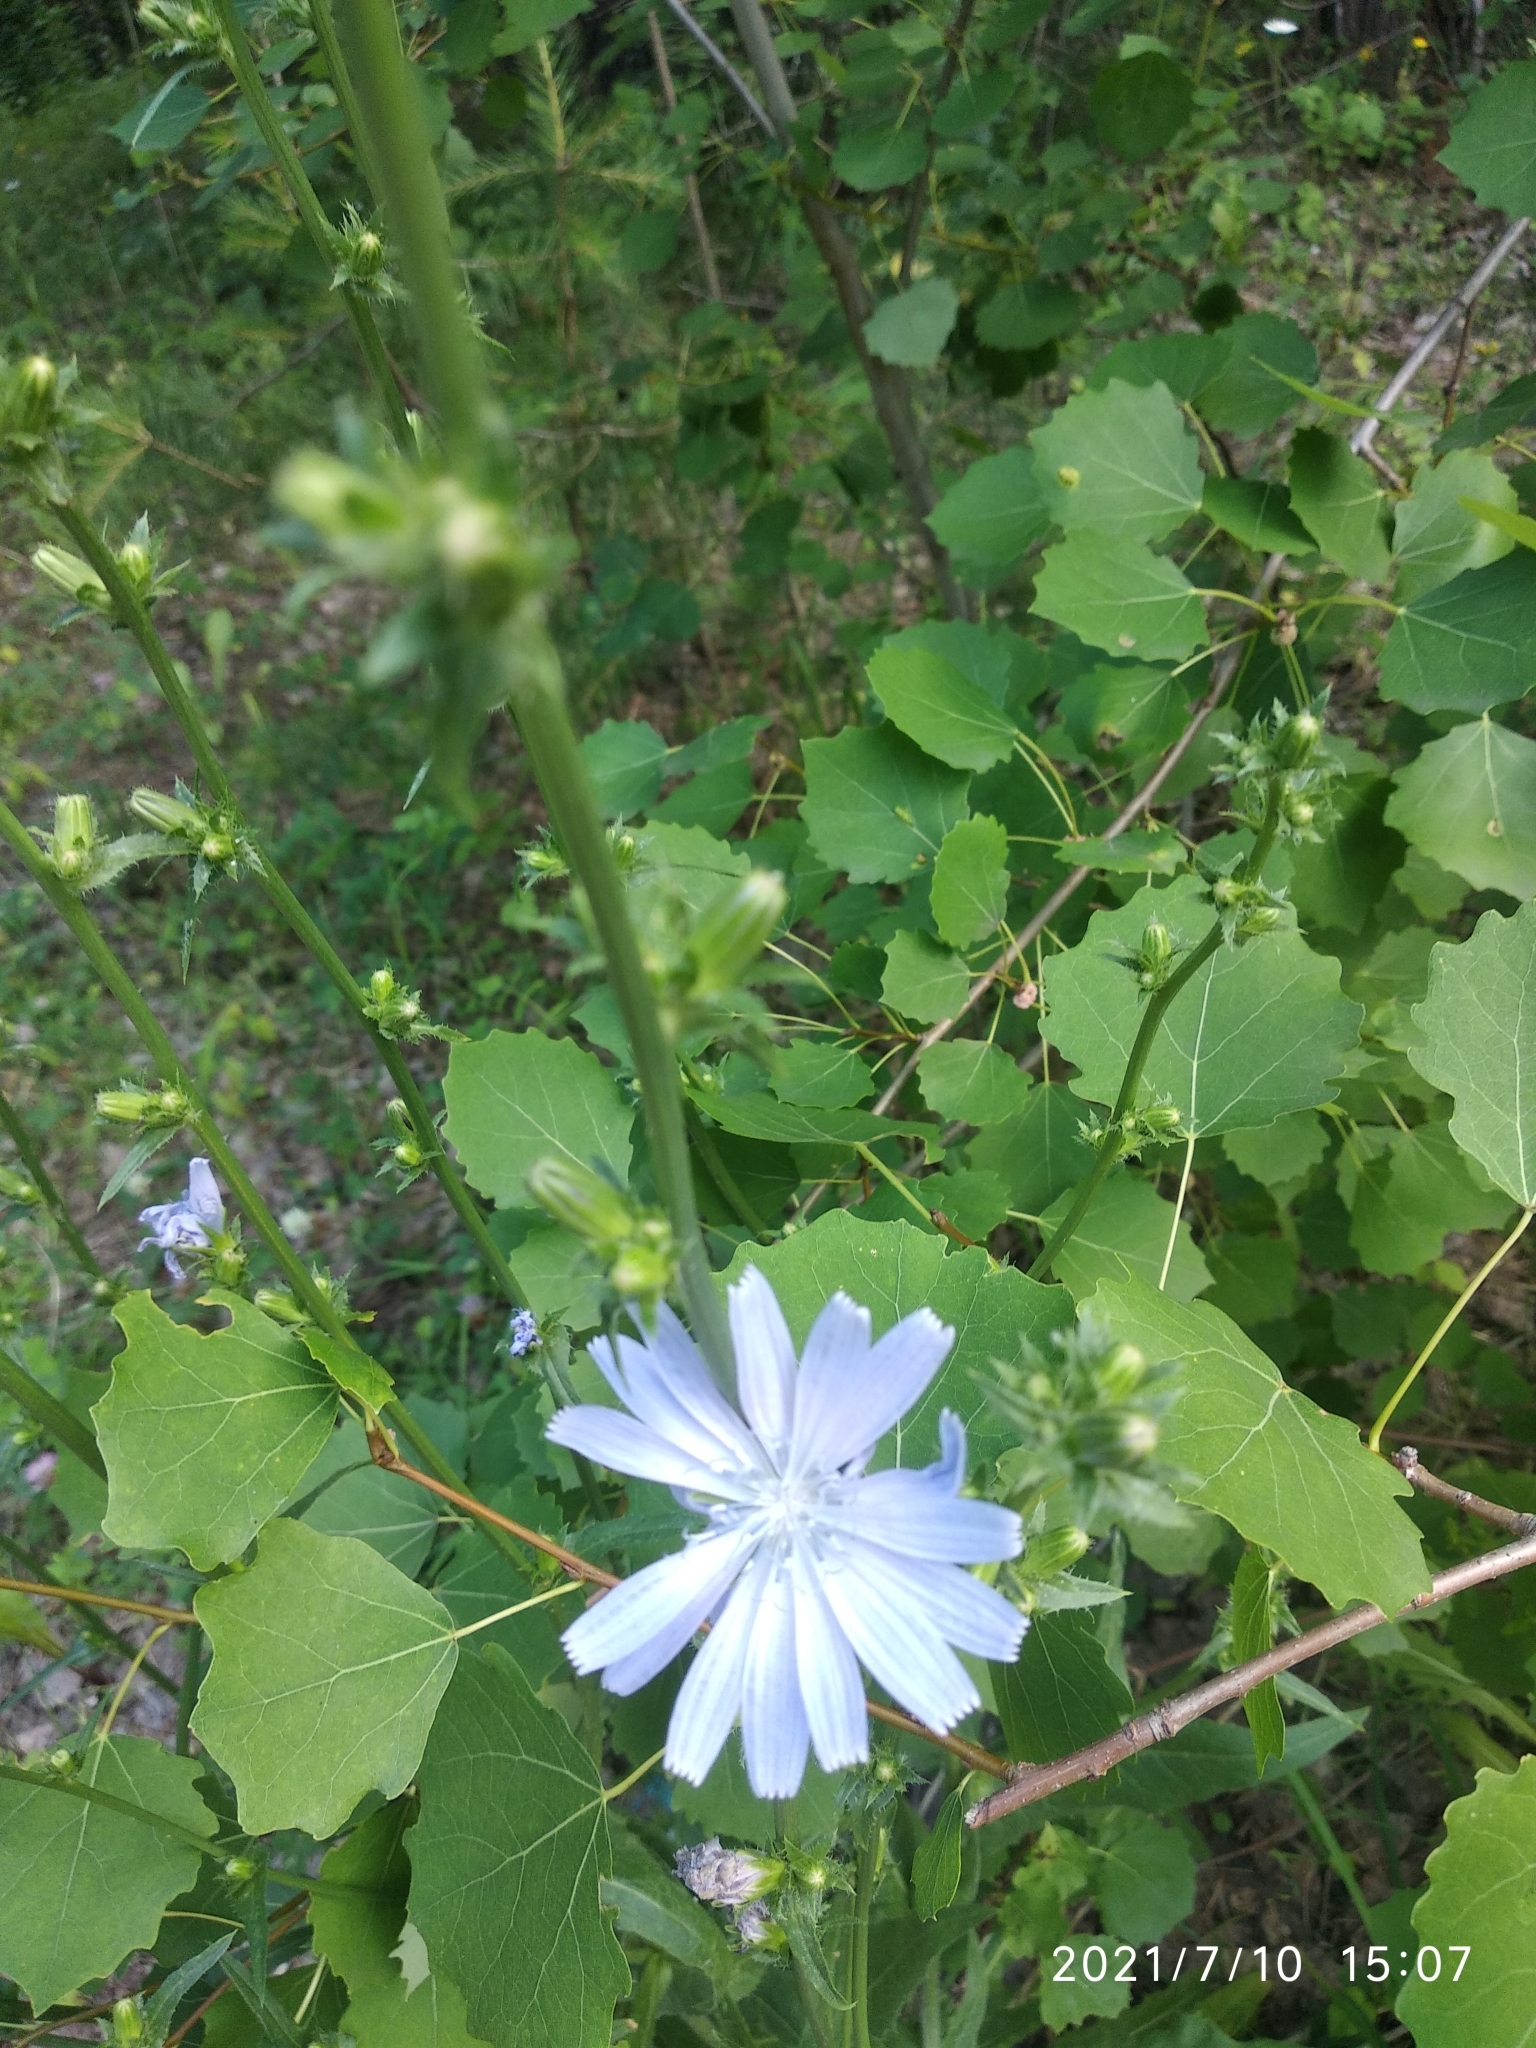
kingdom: Plantae
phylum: Tracheophyta
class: Magnoliopsida
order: Asterales
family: Asteraceae
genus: Cichorium
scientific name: Cichorium intybus
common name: Chicory
